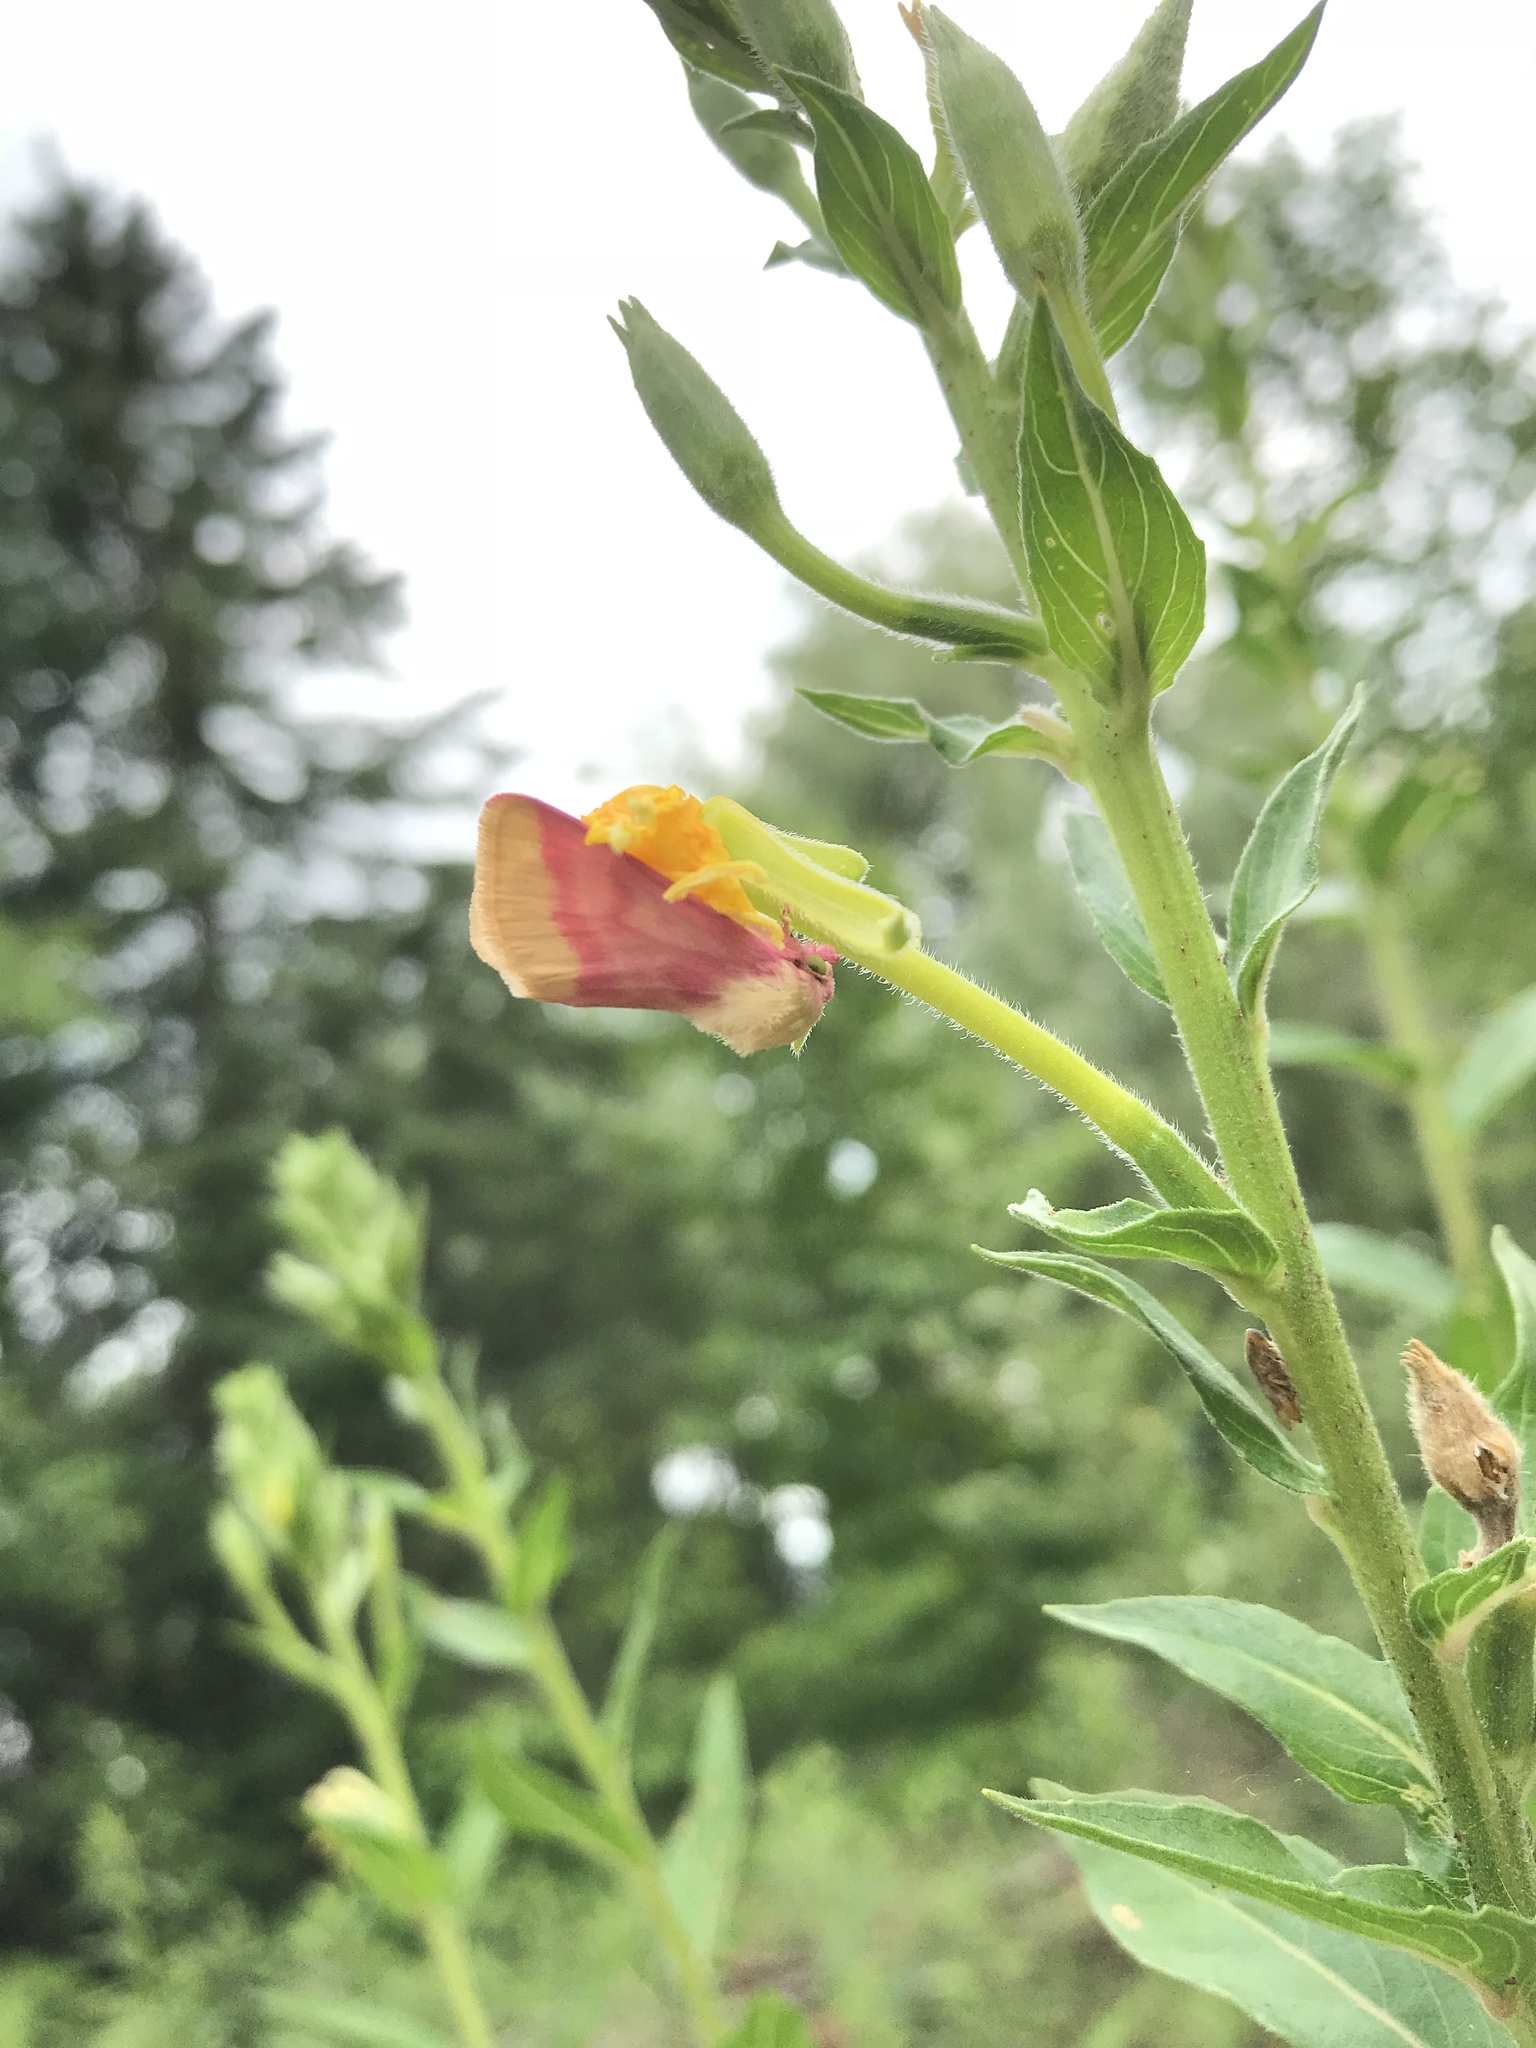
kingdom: Animalia
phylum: Arthropoda
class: Insecta
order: Lepidoptera
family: Noctuidae
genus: Schinia
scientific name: Schinia florida
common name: Primrose moth
